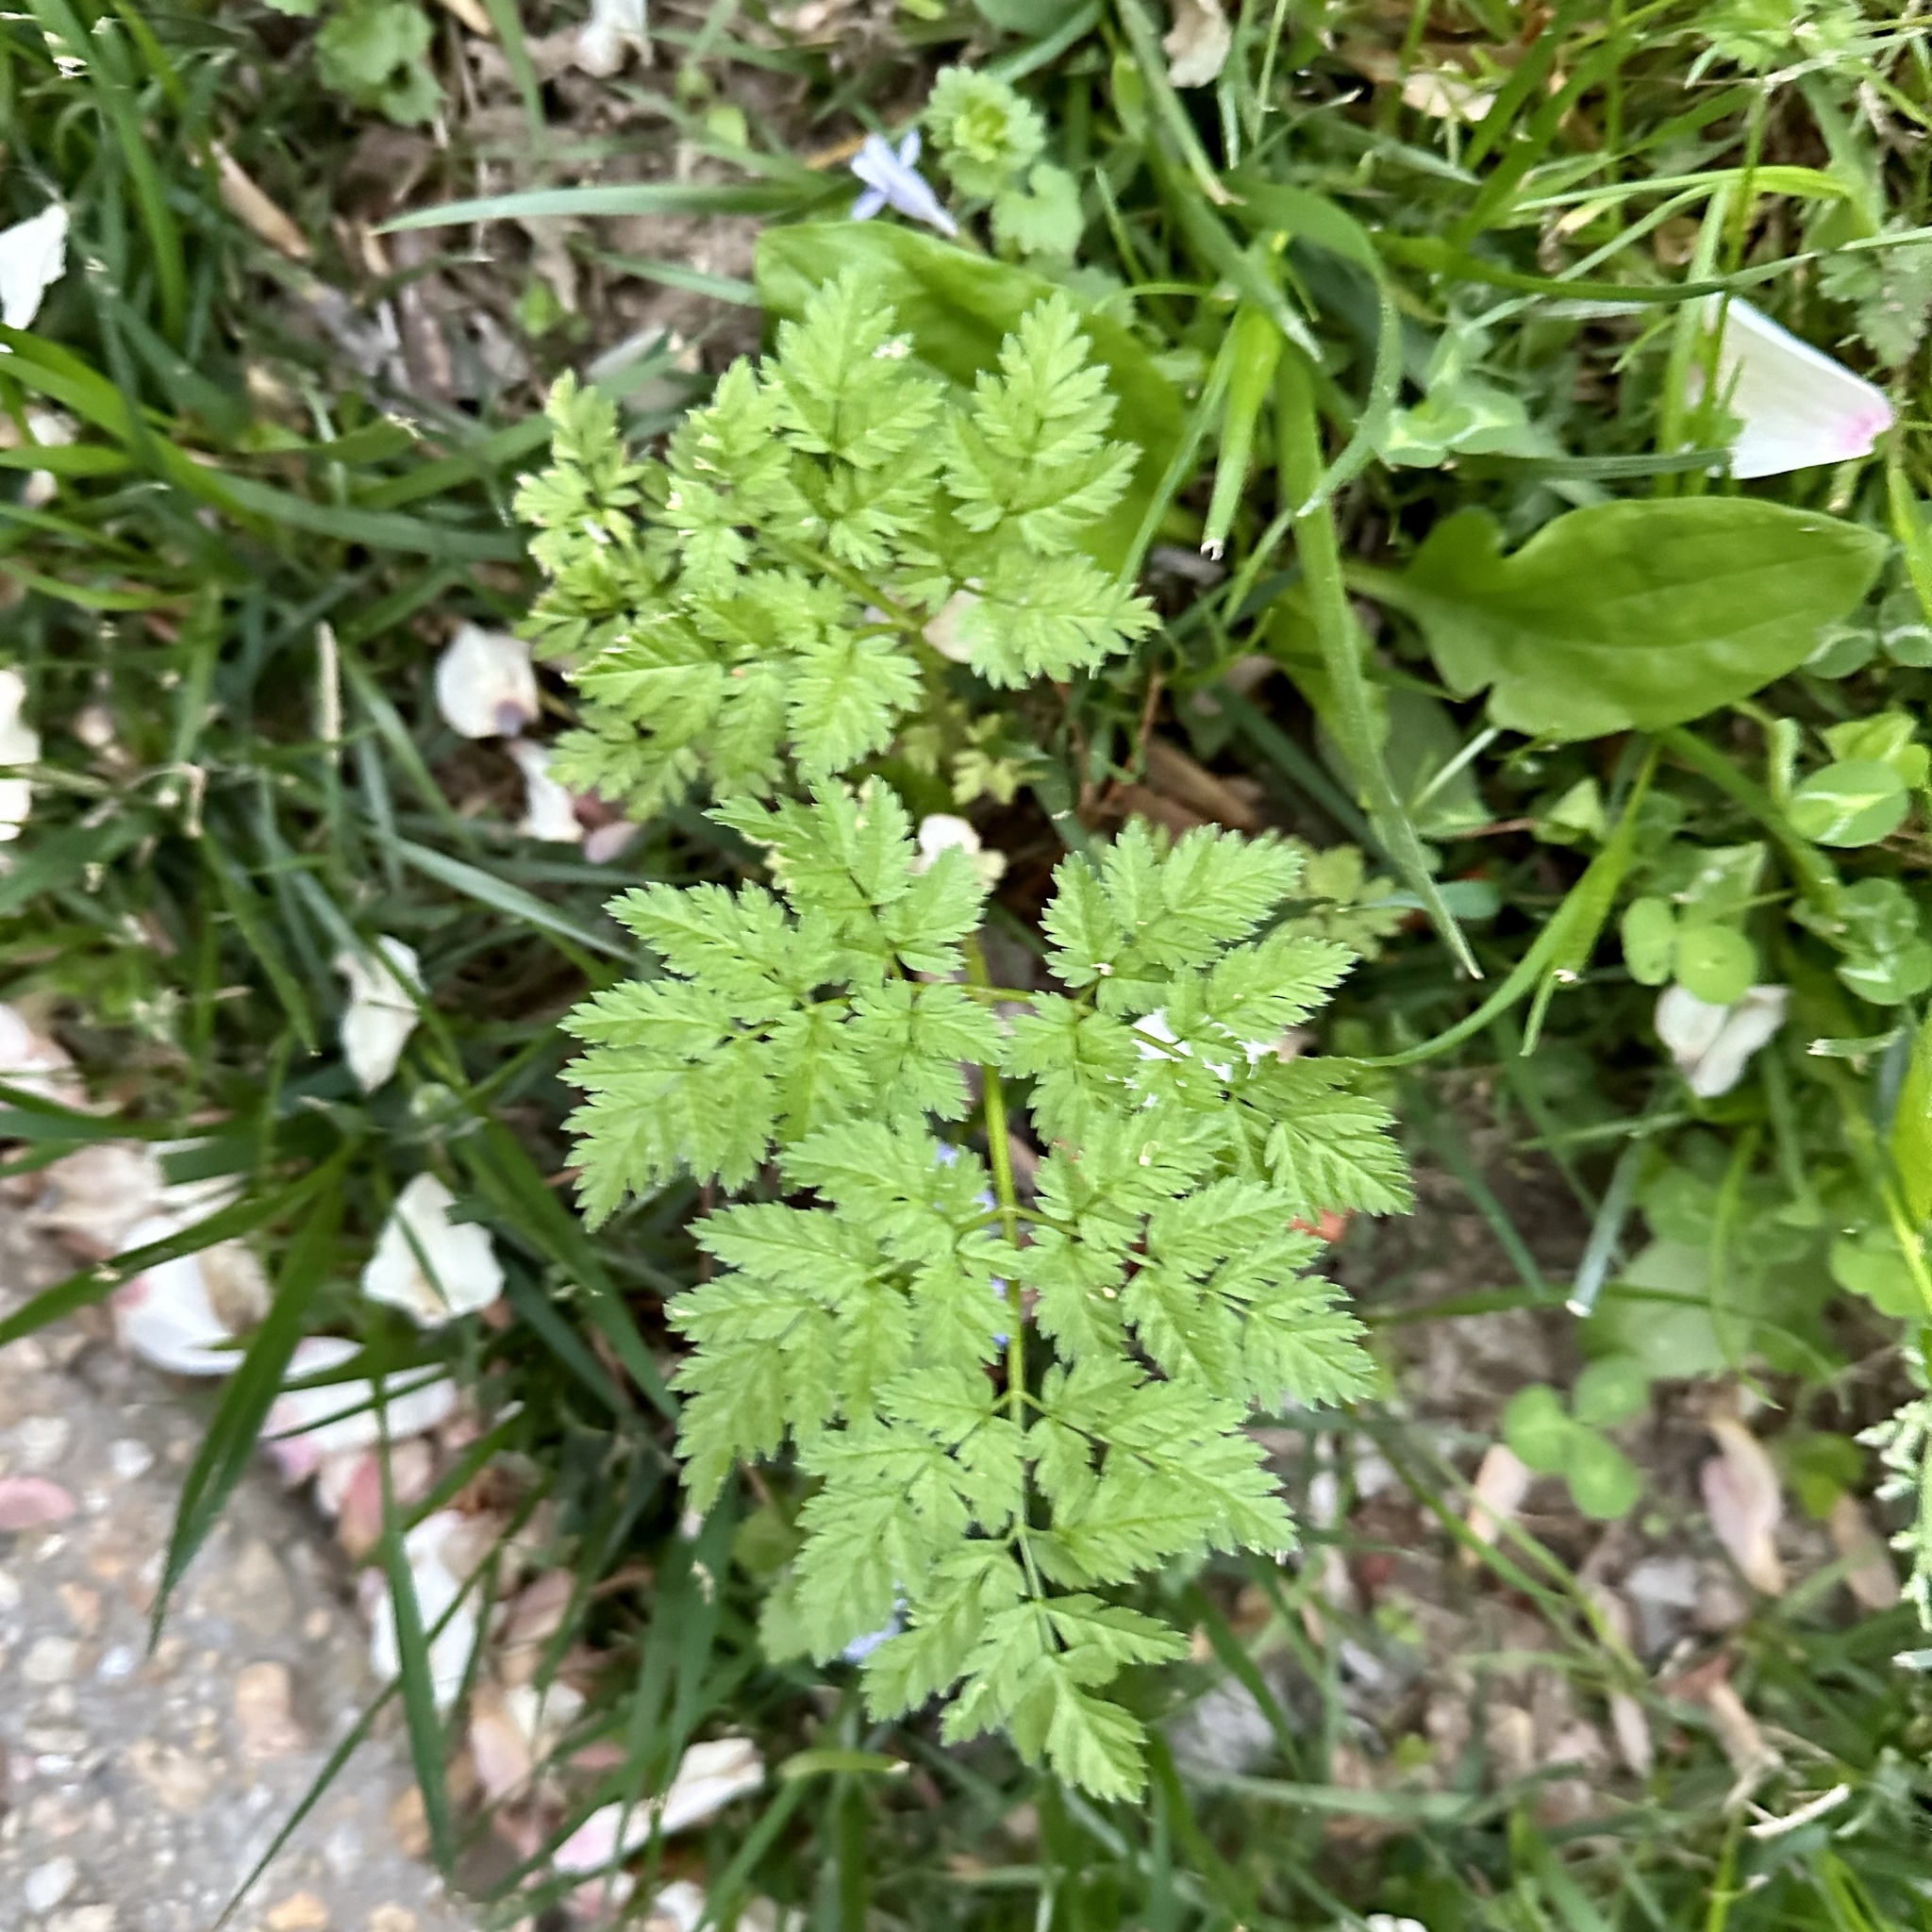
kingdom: Plantae
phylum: Tracheophyta
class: Magnoliopsida
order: Apiales
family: Apiaceae
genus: Conium
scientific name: Conium maculatum
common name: Hemlock
